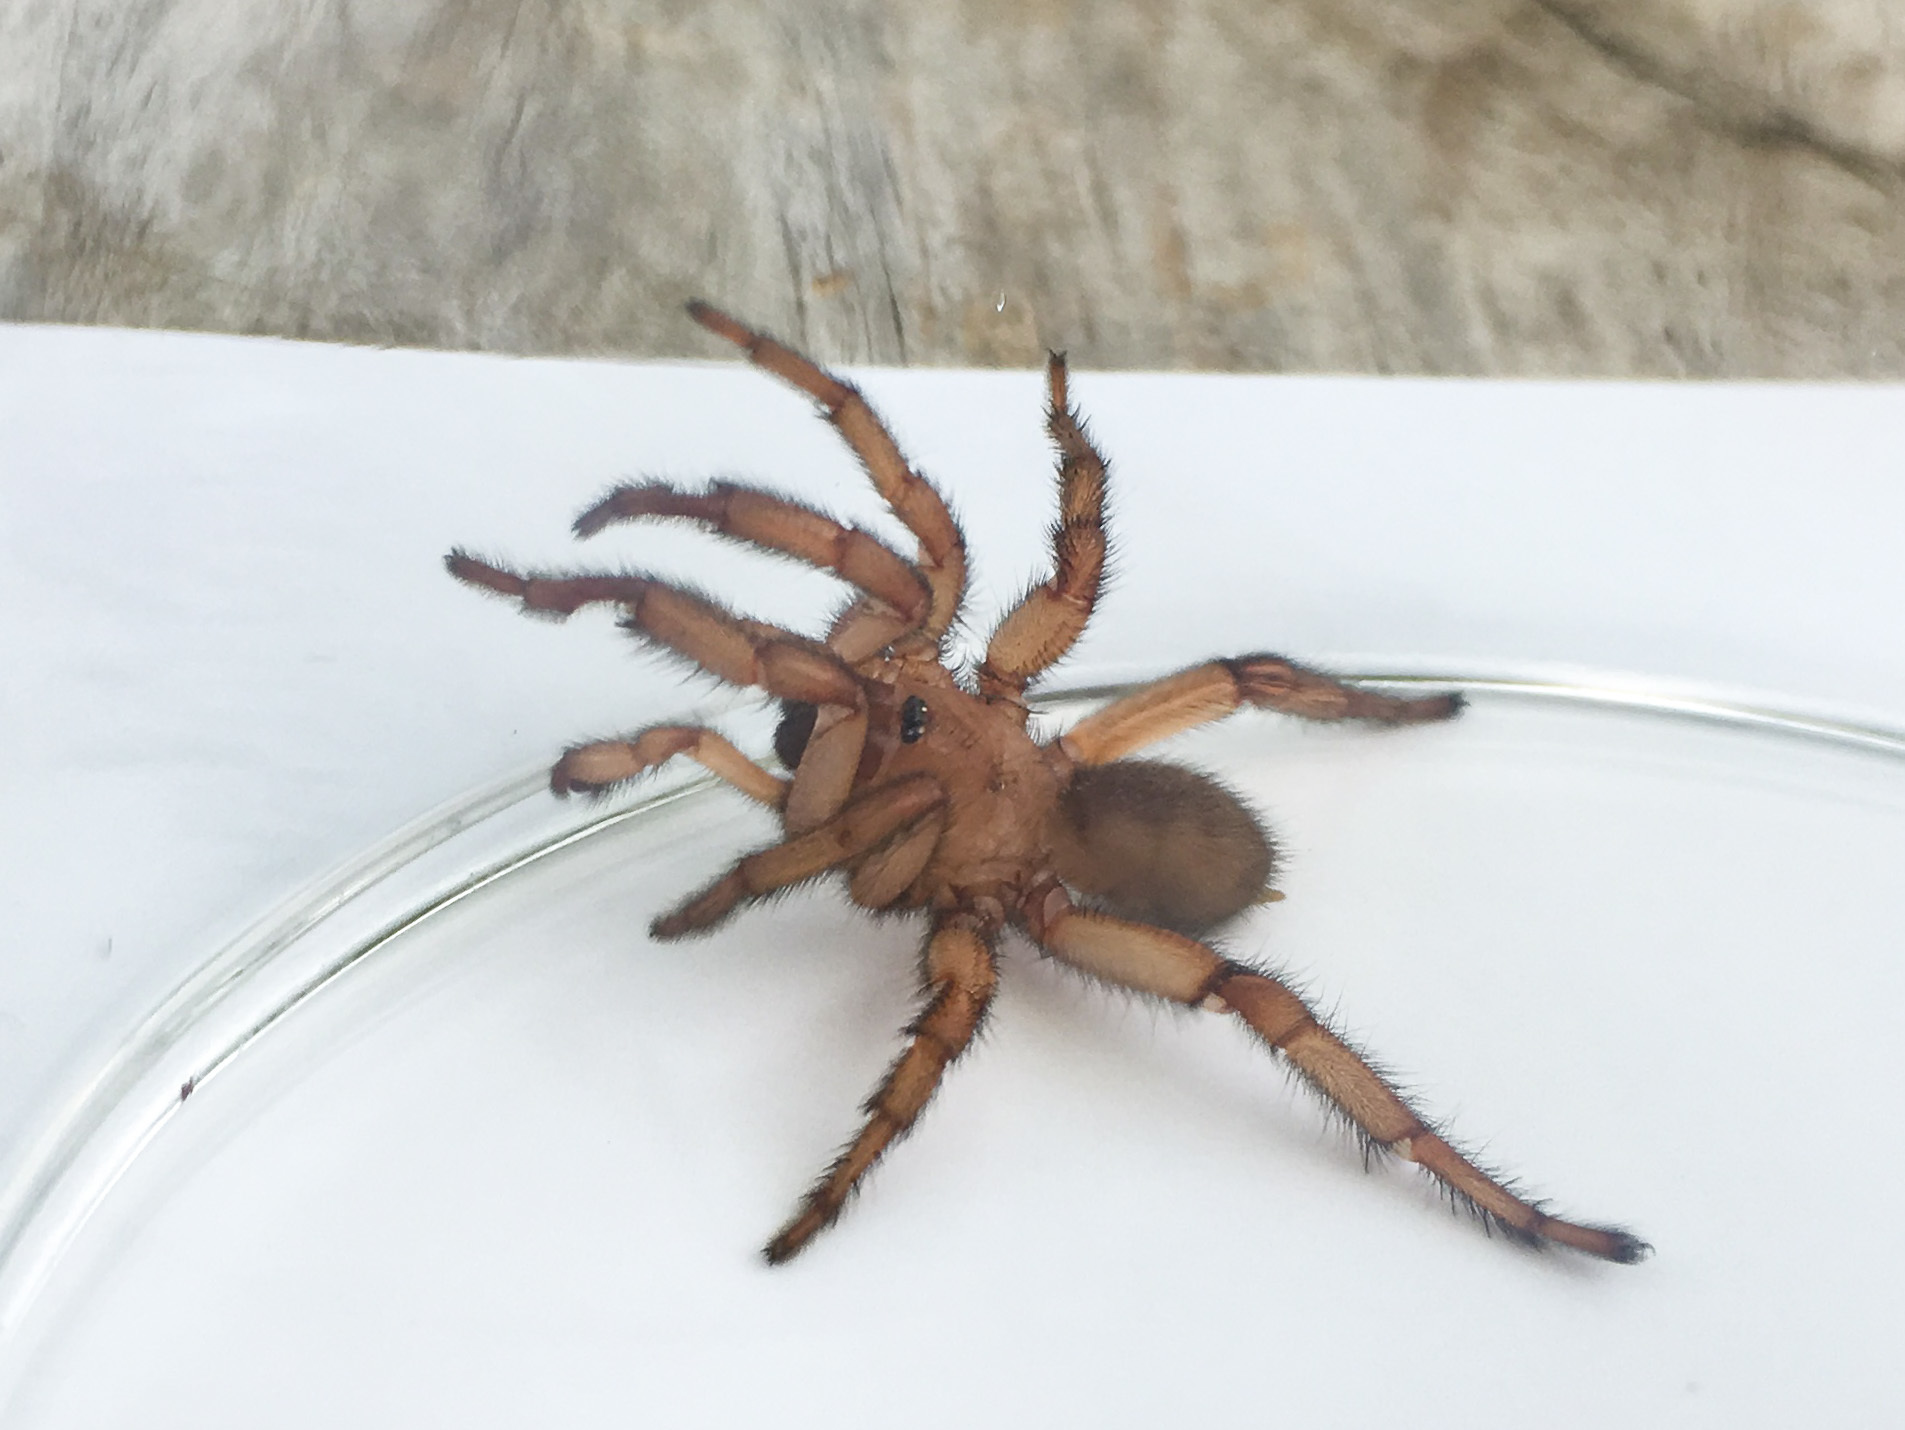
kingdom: Animalia
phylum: Arthropoda
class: Arachnida
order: Araneae
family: Euctenizidae
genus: Myrmekiaphila
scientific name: Myrmekiaphila comstocki
